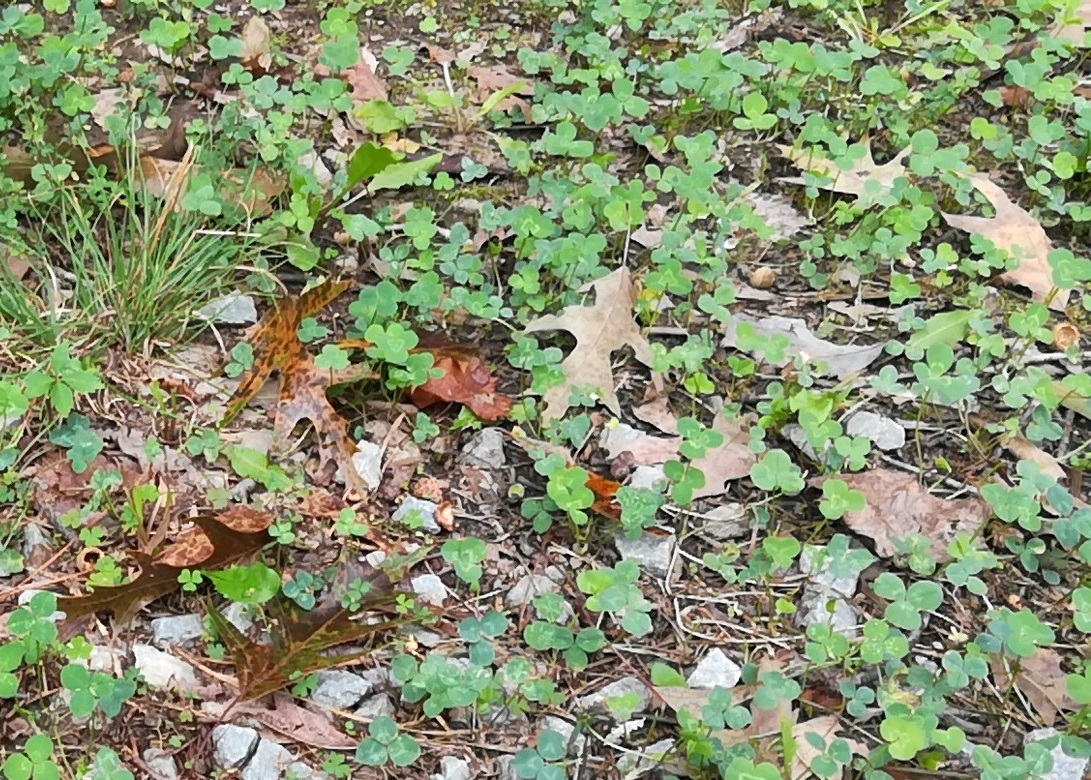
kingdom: Plantae
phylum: Tracheophyta
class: Magnoliopsida
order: Fabales
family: Fabaceae
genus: Trifolium
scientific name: Trifolium repens
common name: White clover
